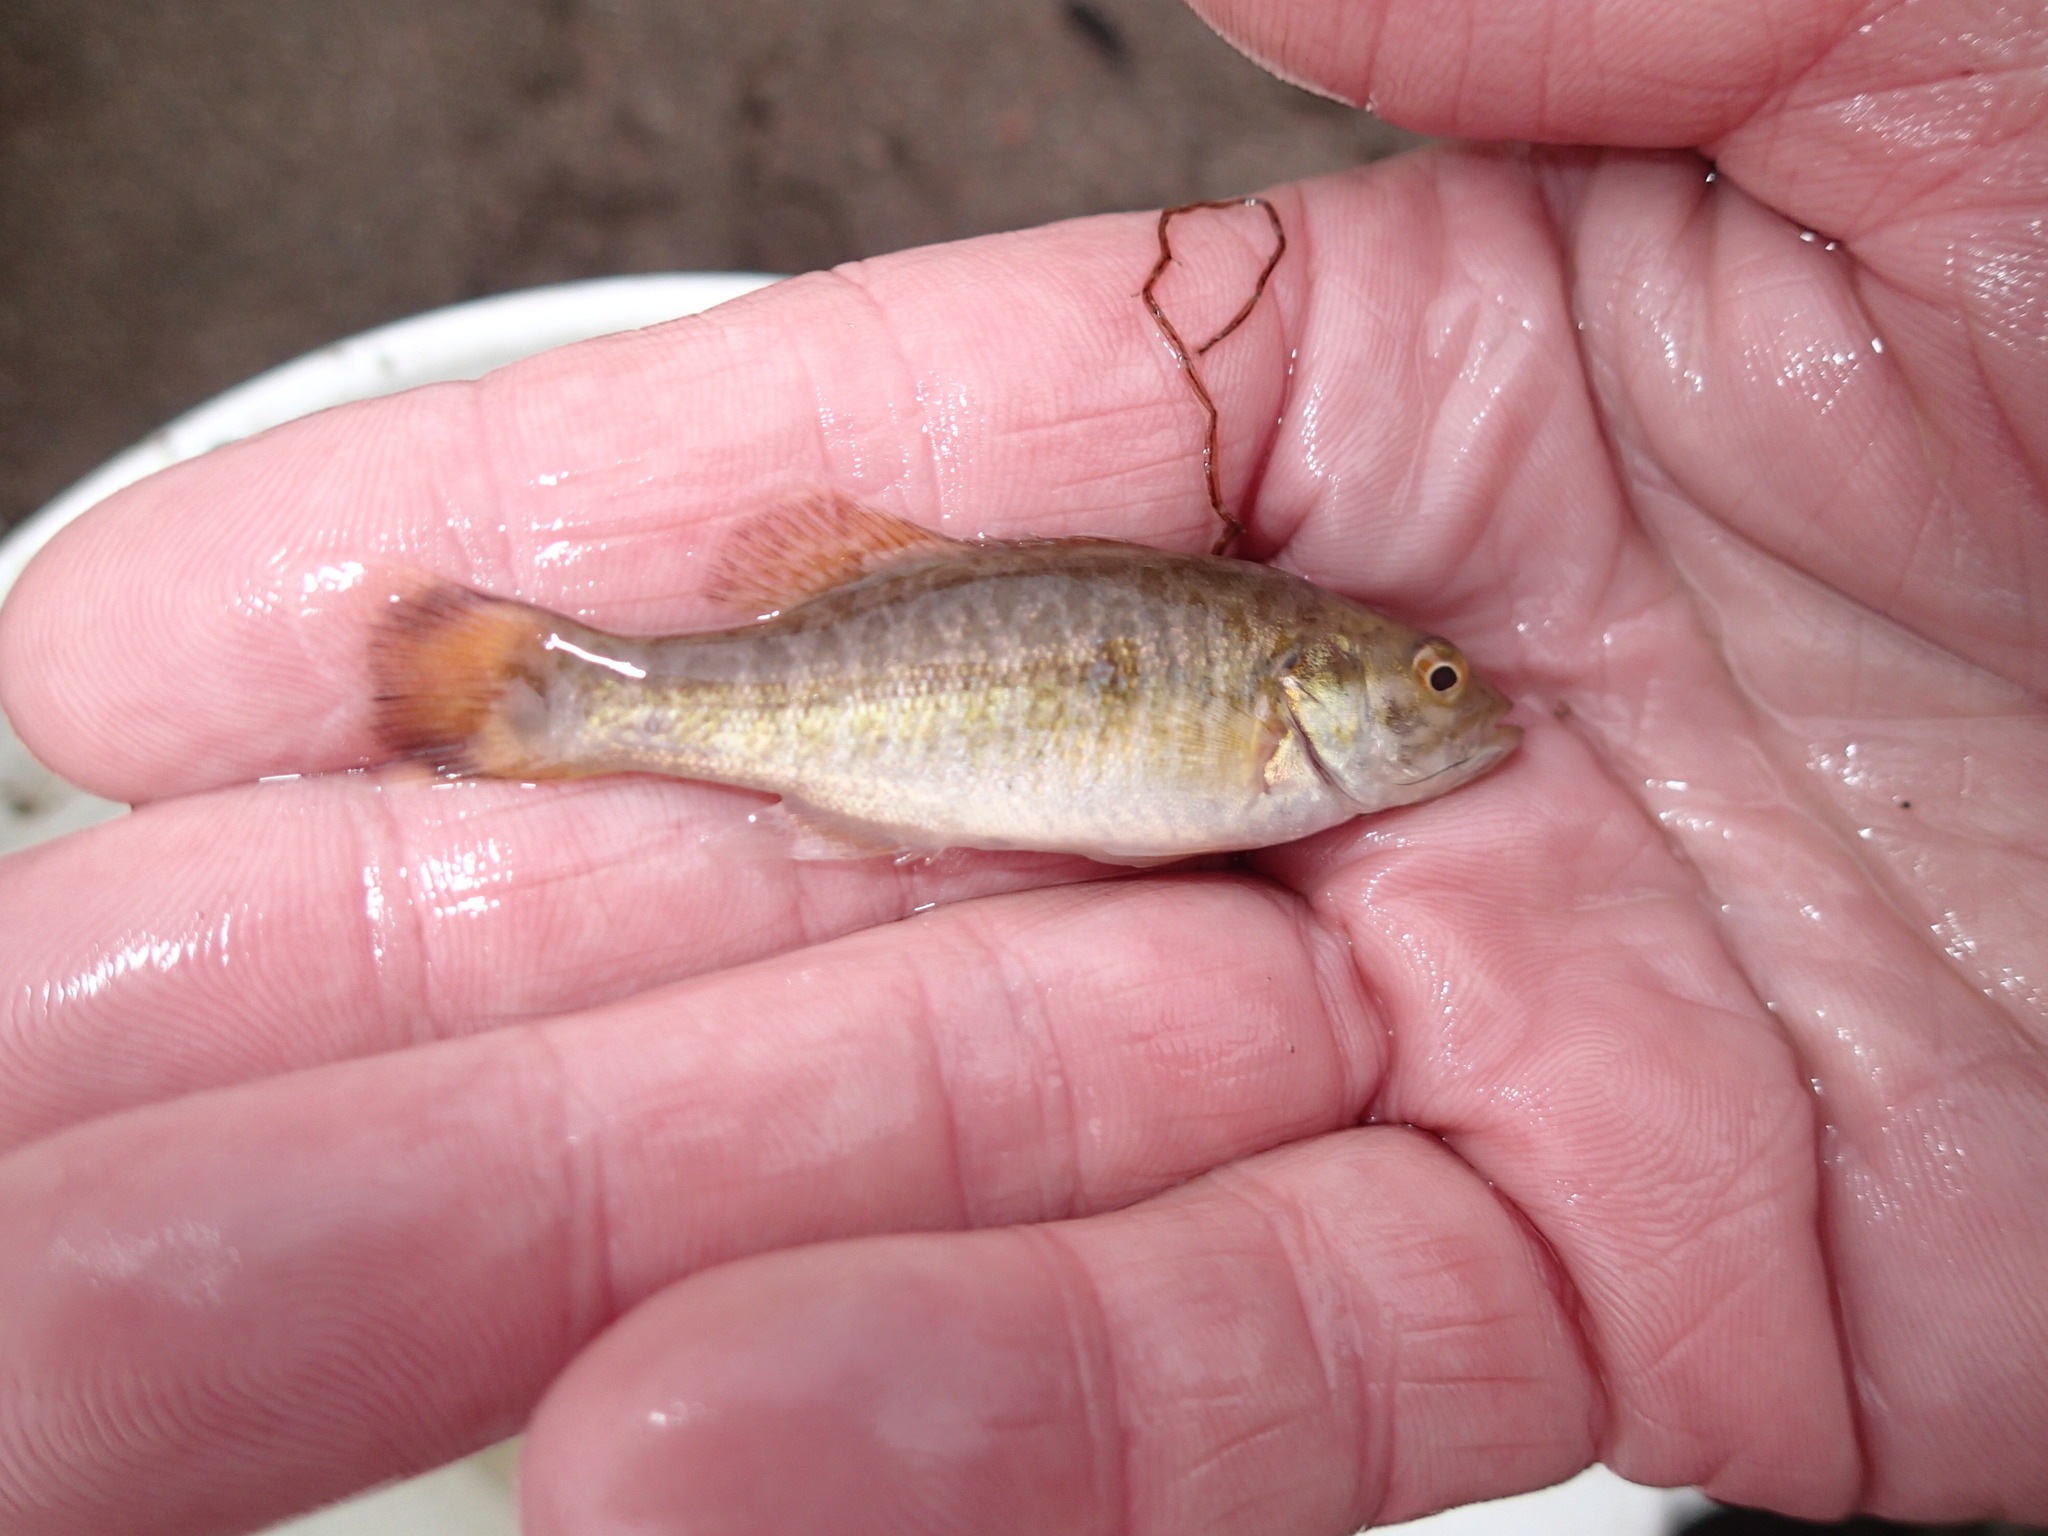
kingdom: Animalia
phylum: Chordata
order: Perciformes
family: Centrarchidae
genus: Micropterus
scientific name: Micropterus dolomieu
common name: Smallmouth bass
